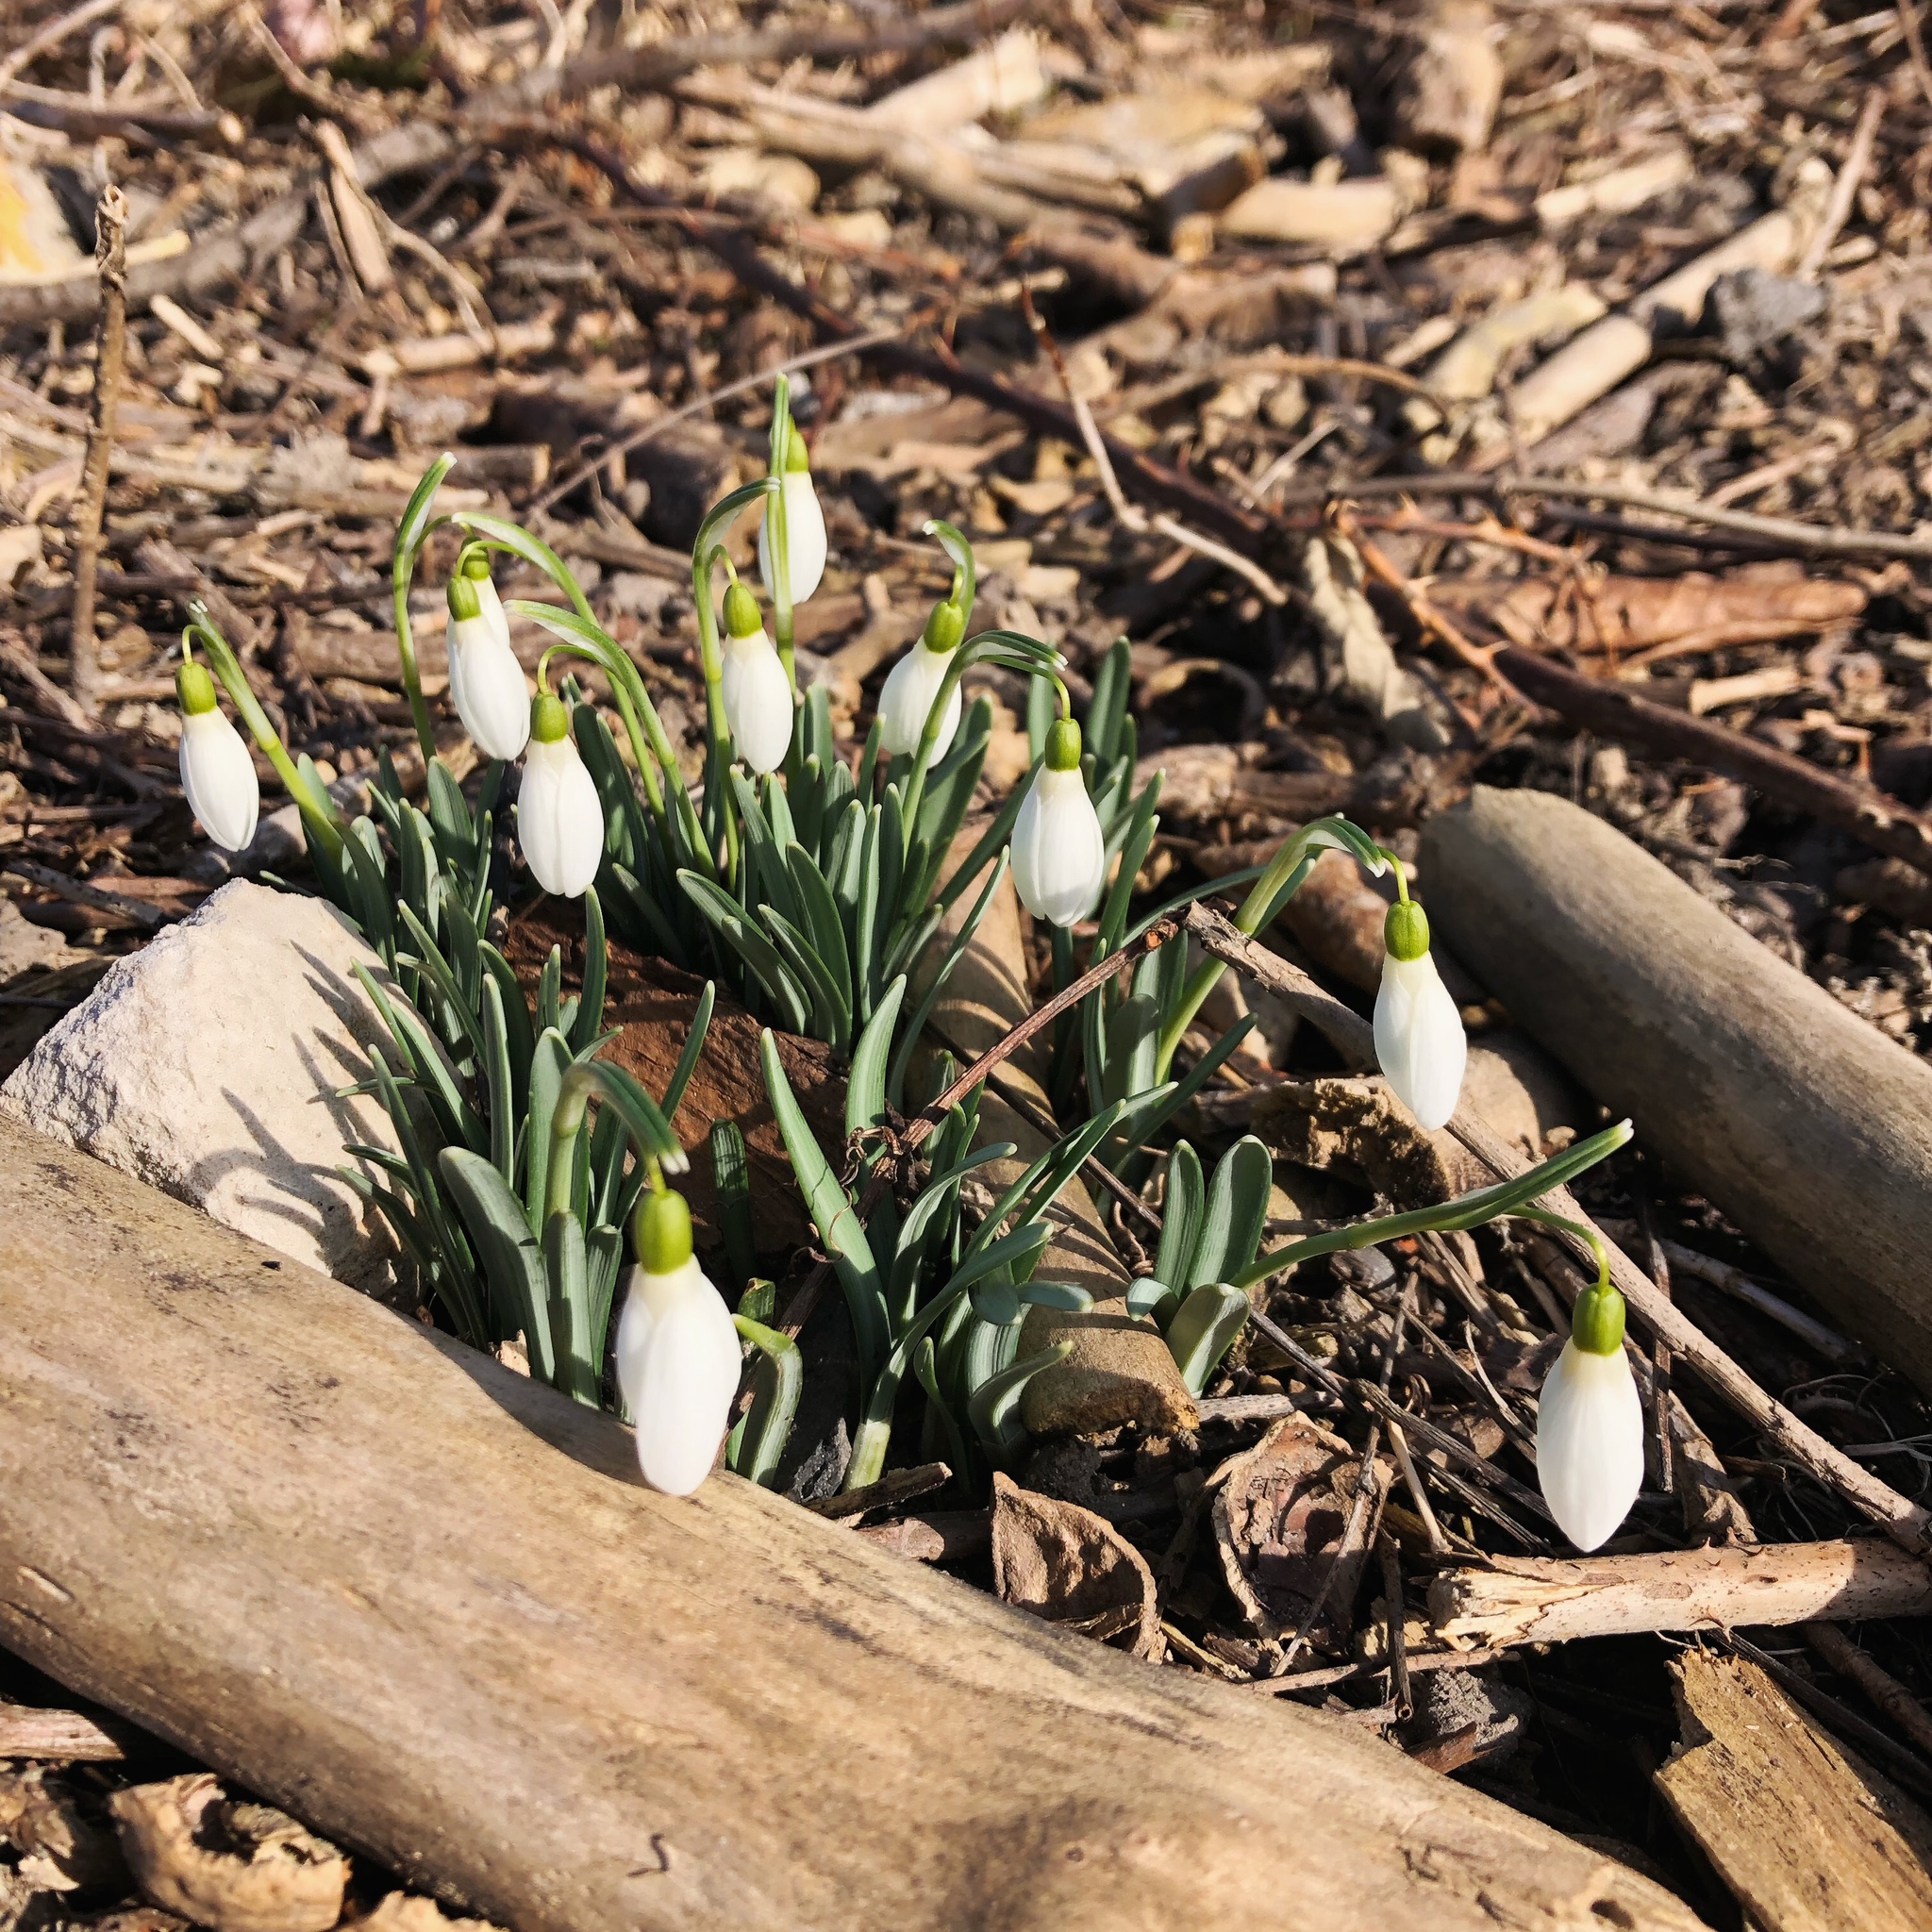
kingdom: Plantae
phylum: Tracheophyta
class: Liliopsida
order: Asparagales
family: Amaryllidaceae
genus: Galanthus
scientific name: Galanthus nivalis
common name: Snowdrop
